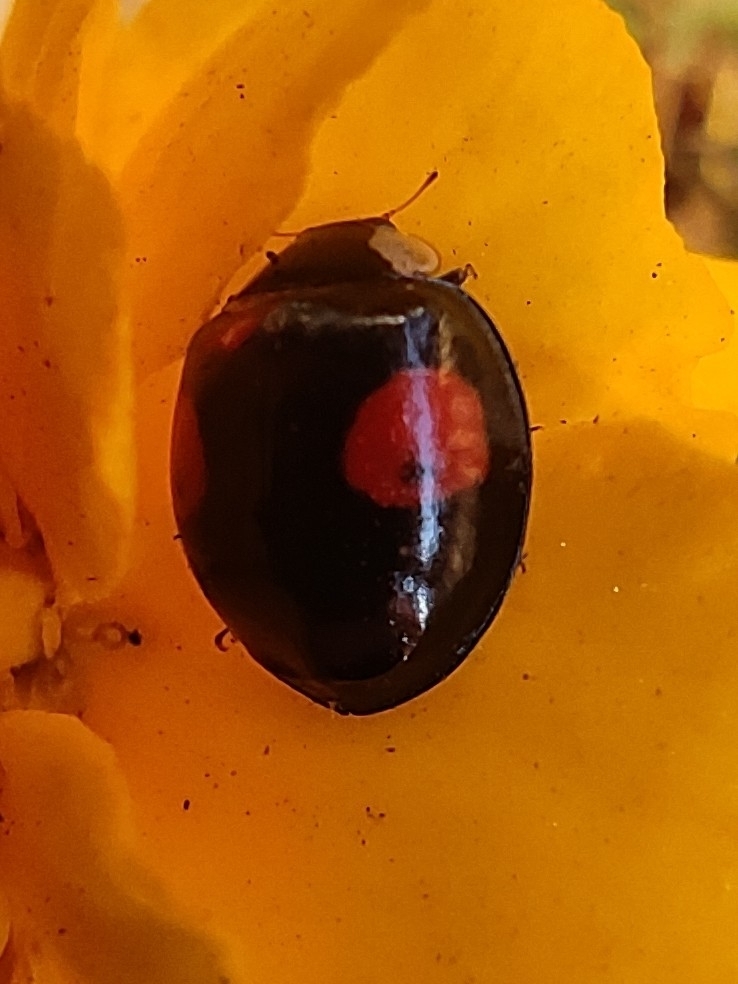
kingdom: Animalia
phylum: Arthropoda
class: Insecta
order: Coleoptera
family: Coccinellidae
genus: Harmonia
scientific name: Harmonia axyridis
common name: Harlequin ladybird
